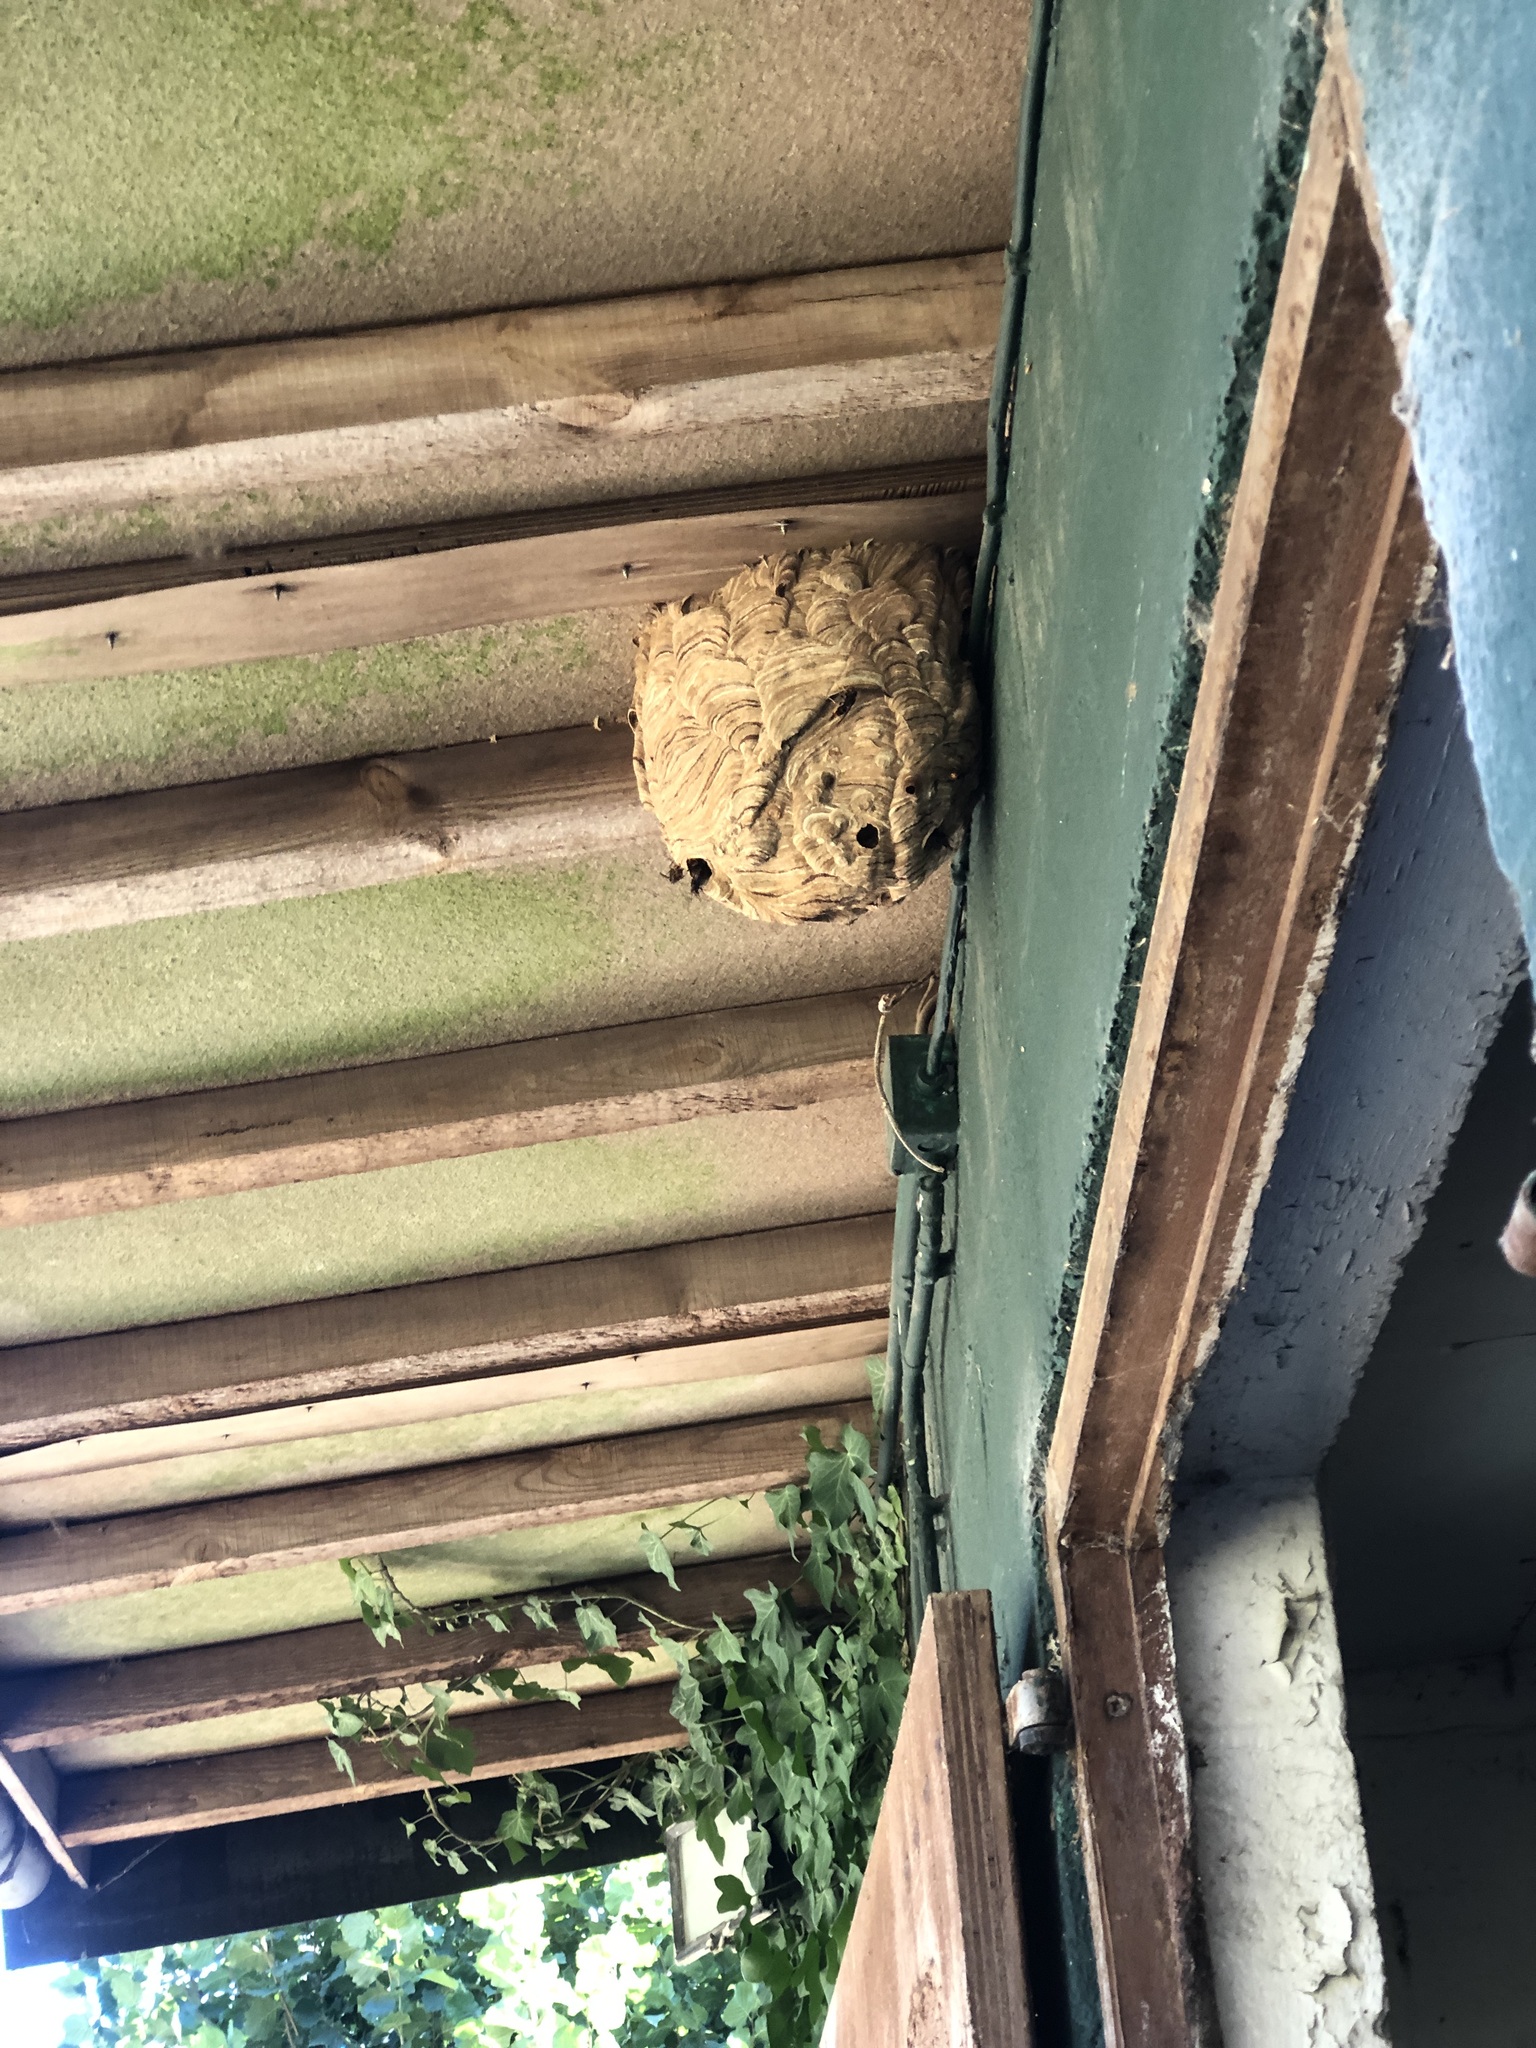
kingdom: Animalia
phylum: Arthropoda
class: Insecta
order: Hymenoptera
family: Vespidae
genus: Vespa
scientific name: Vespa velutina
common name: Asian hornet
